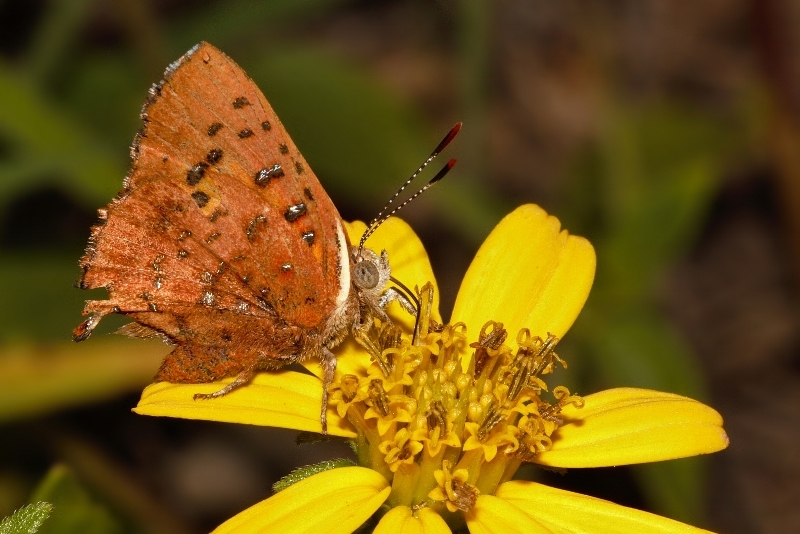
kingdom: Animalia
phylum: Arthropoda
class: Insecta
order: Lepidoptera
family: Lycaenidae
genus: Axiocerses
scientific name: Axiocerses perion
